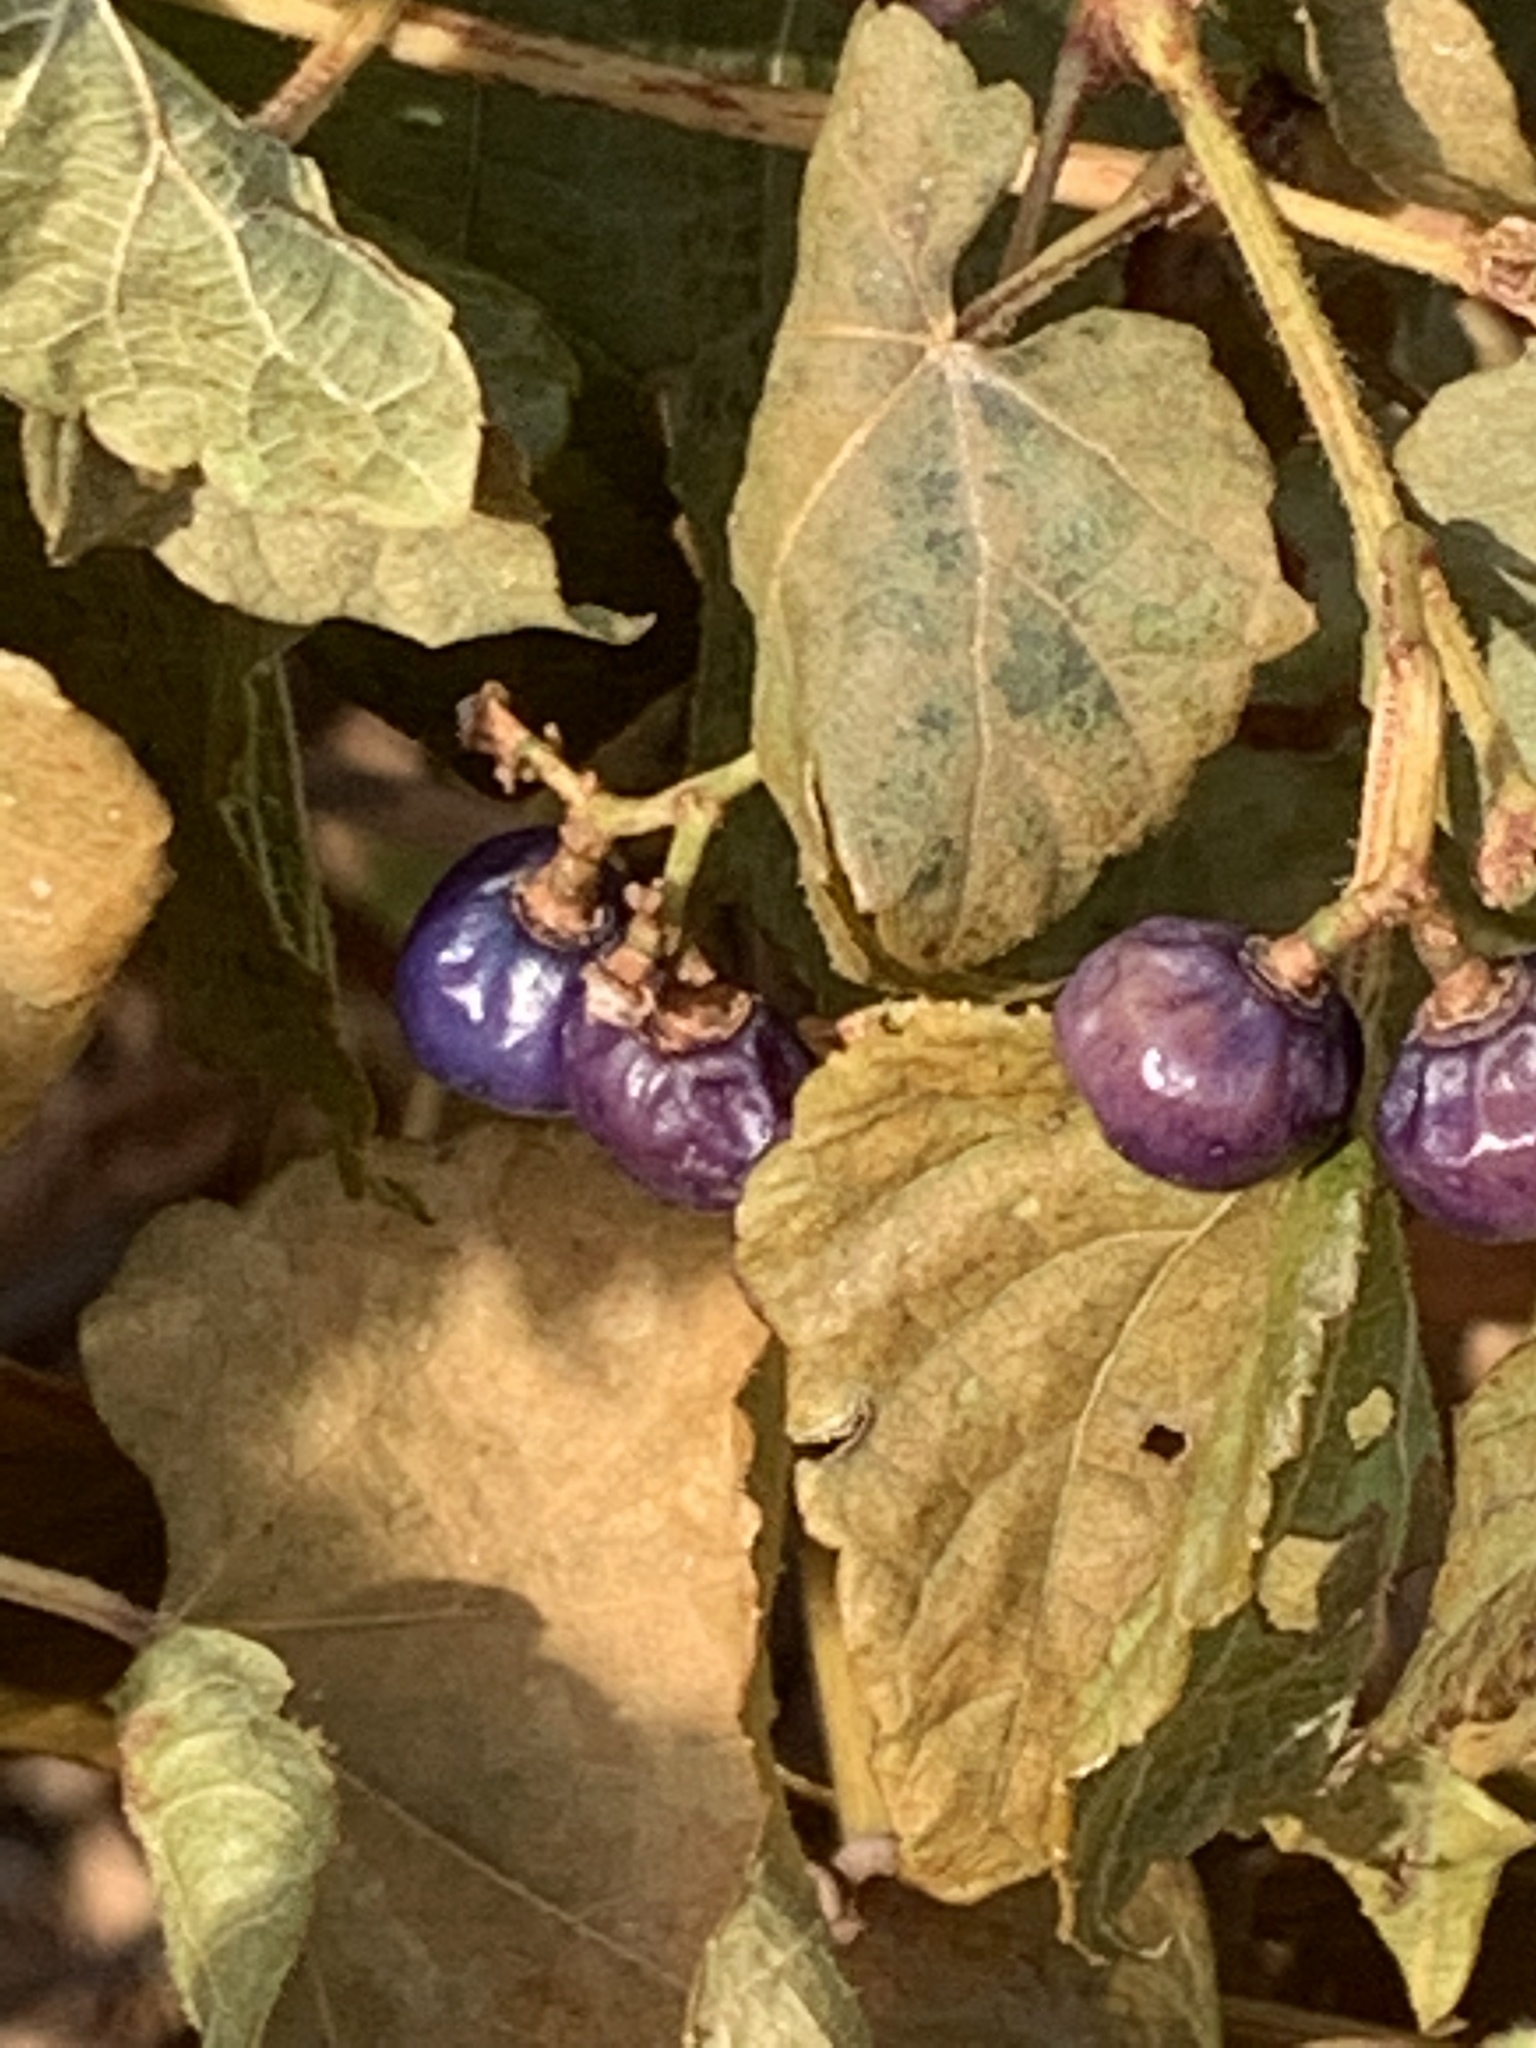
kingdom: Plantae
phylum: Tracheophyta
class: Magnoliopsida
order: Vitales
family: Vitaceae
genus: Ampelopsis
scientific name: Ampelopsis glandulosa
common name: Amur peppervine
